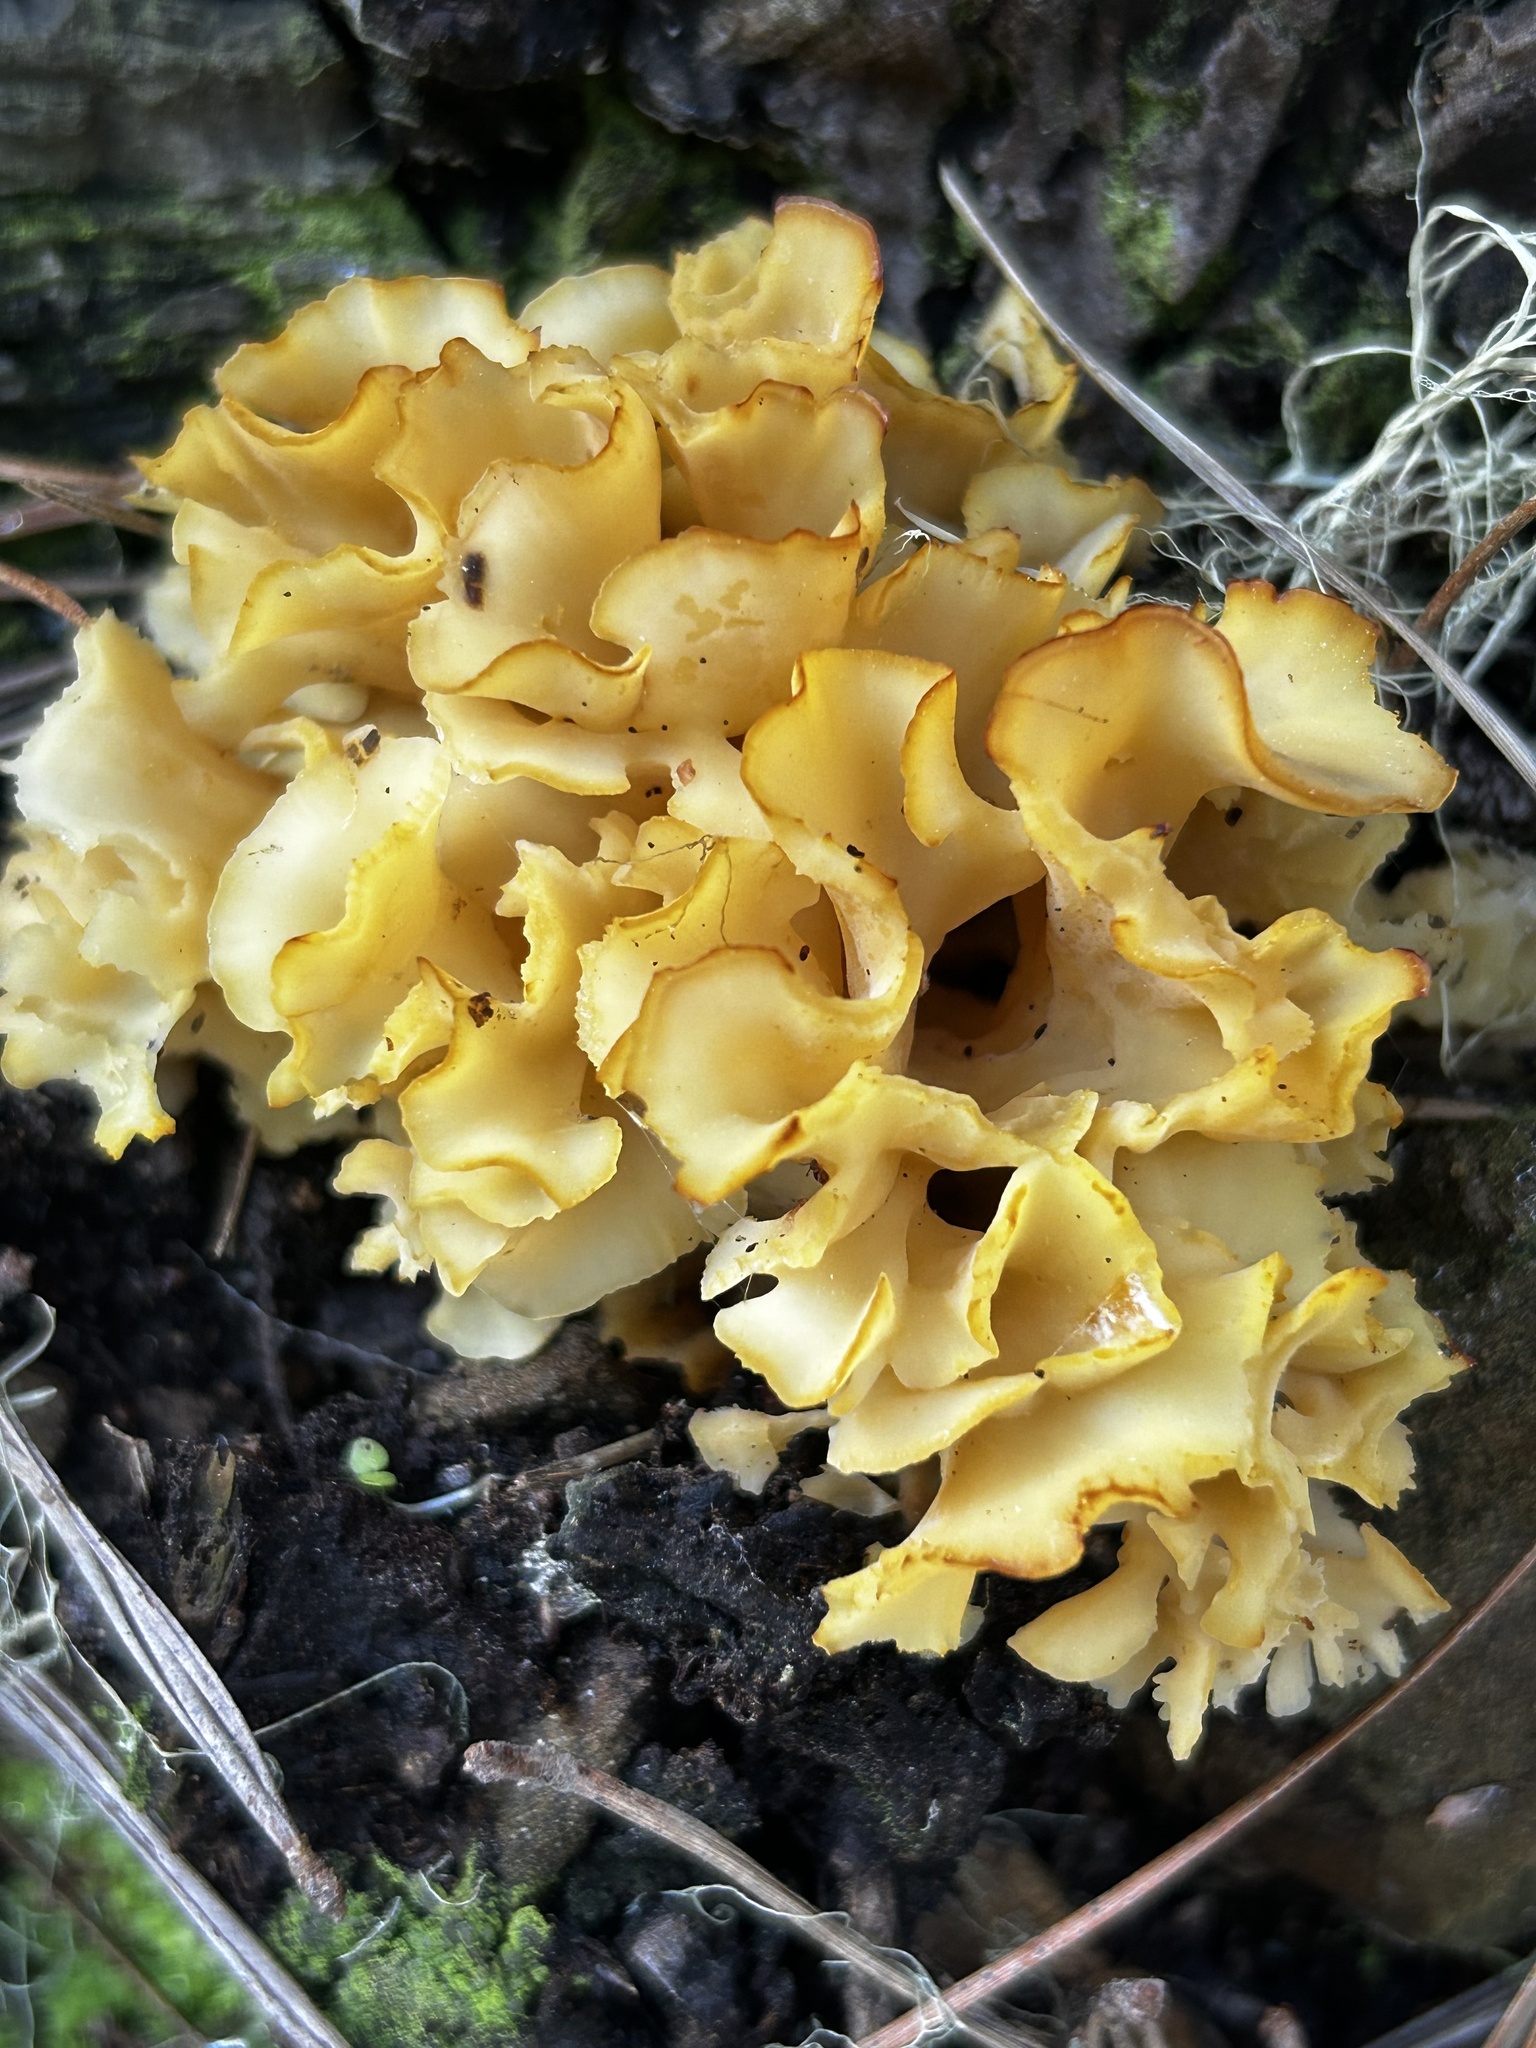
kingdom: Fungi
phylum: Basidiomycota
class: Agaricomycetes
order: Polyporales
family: Sparassidaceae
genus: Sparassis
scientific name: Sparassis radicata
